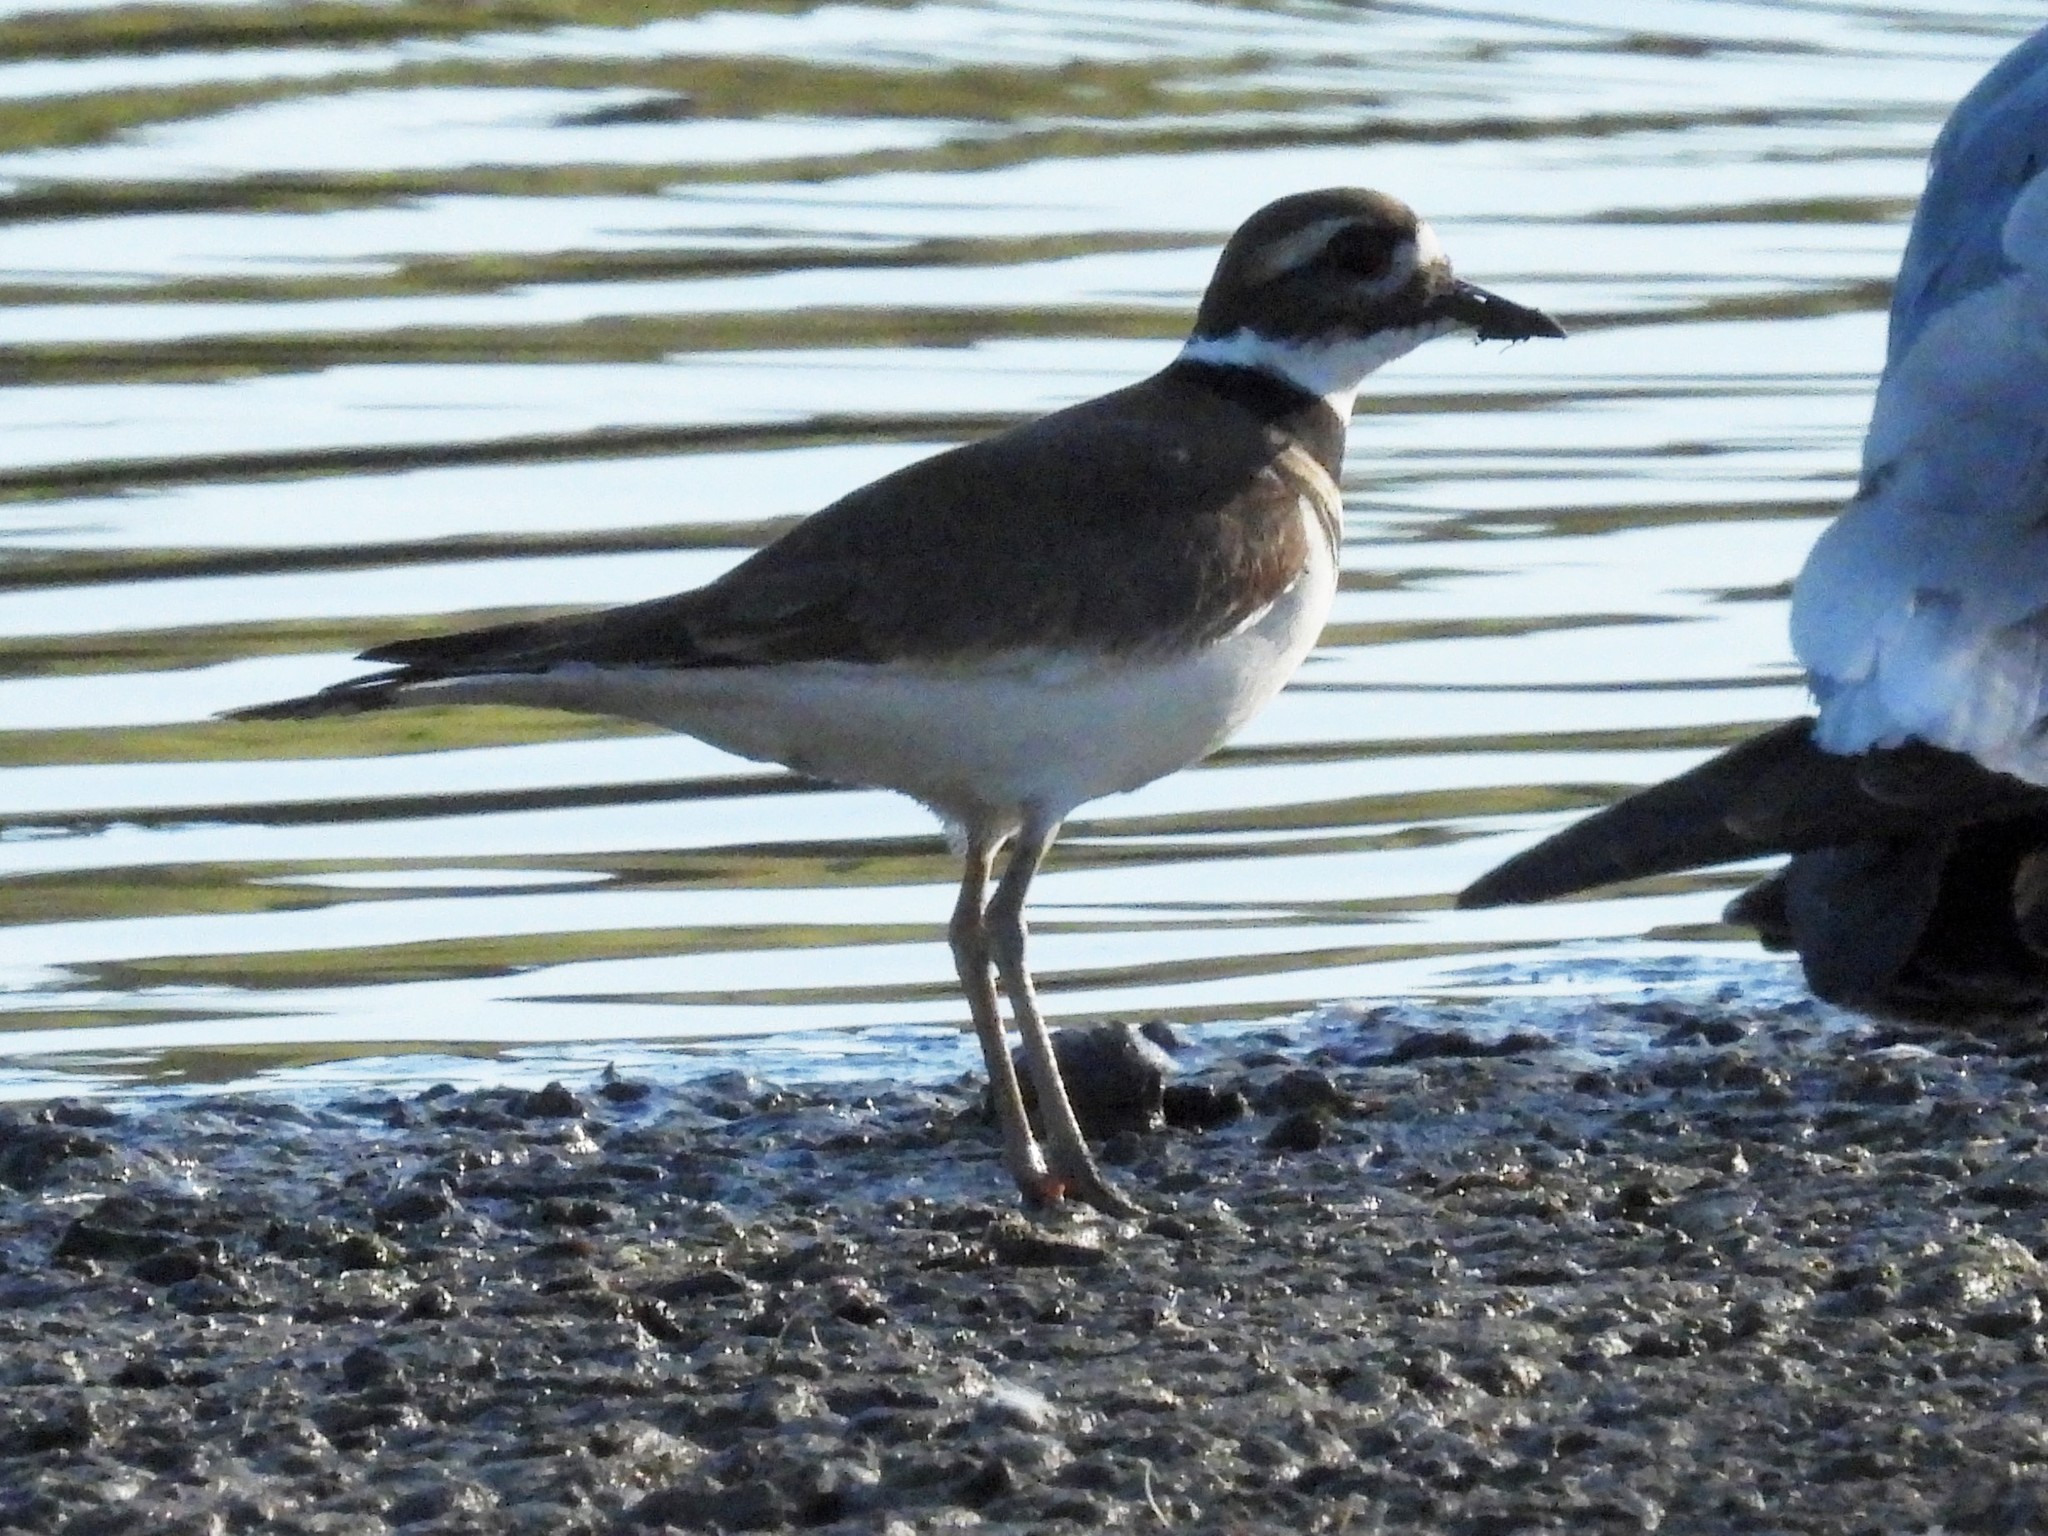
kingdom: Animalia
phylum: Chordata
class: Aves
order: Charadriiformes
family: Charadriidae
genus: Charadrius
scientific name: Charadrius vociferus
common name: Killdeer
